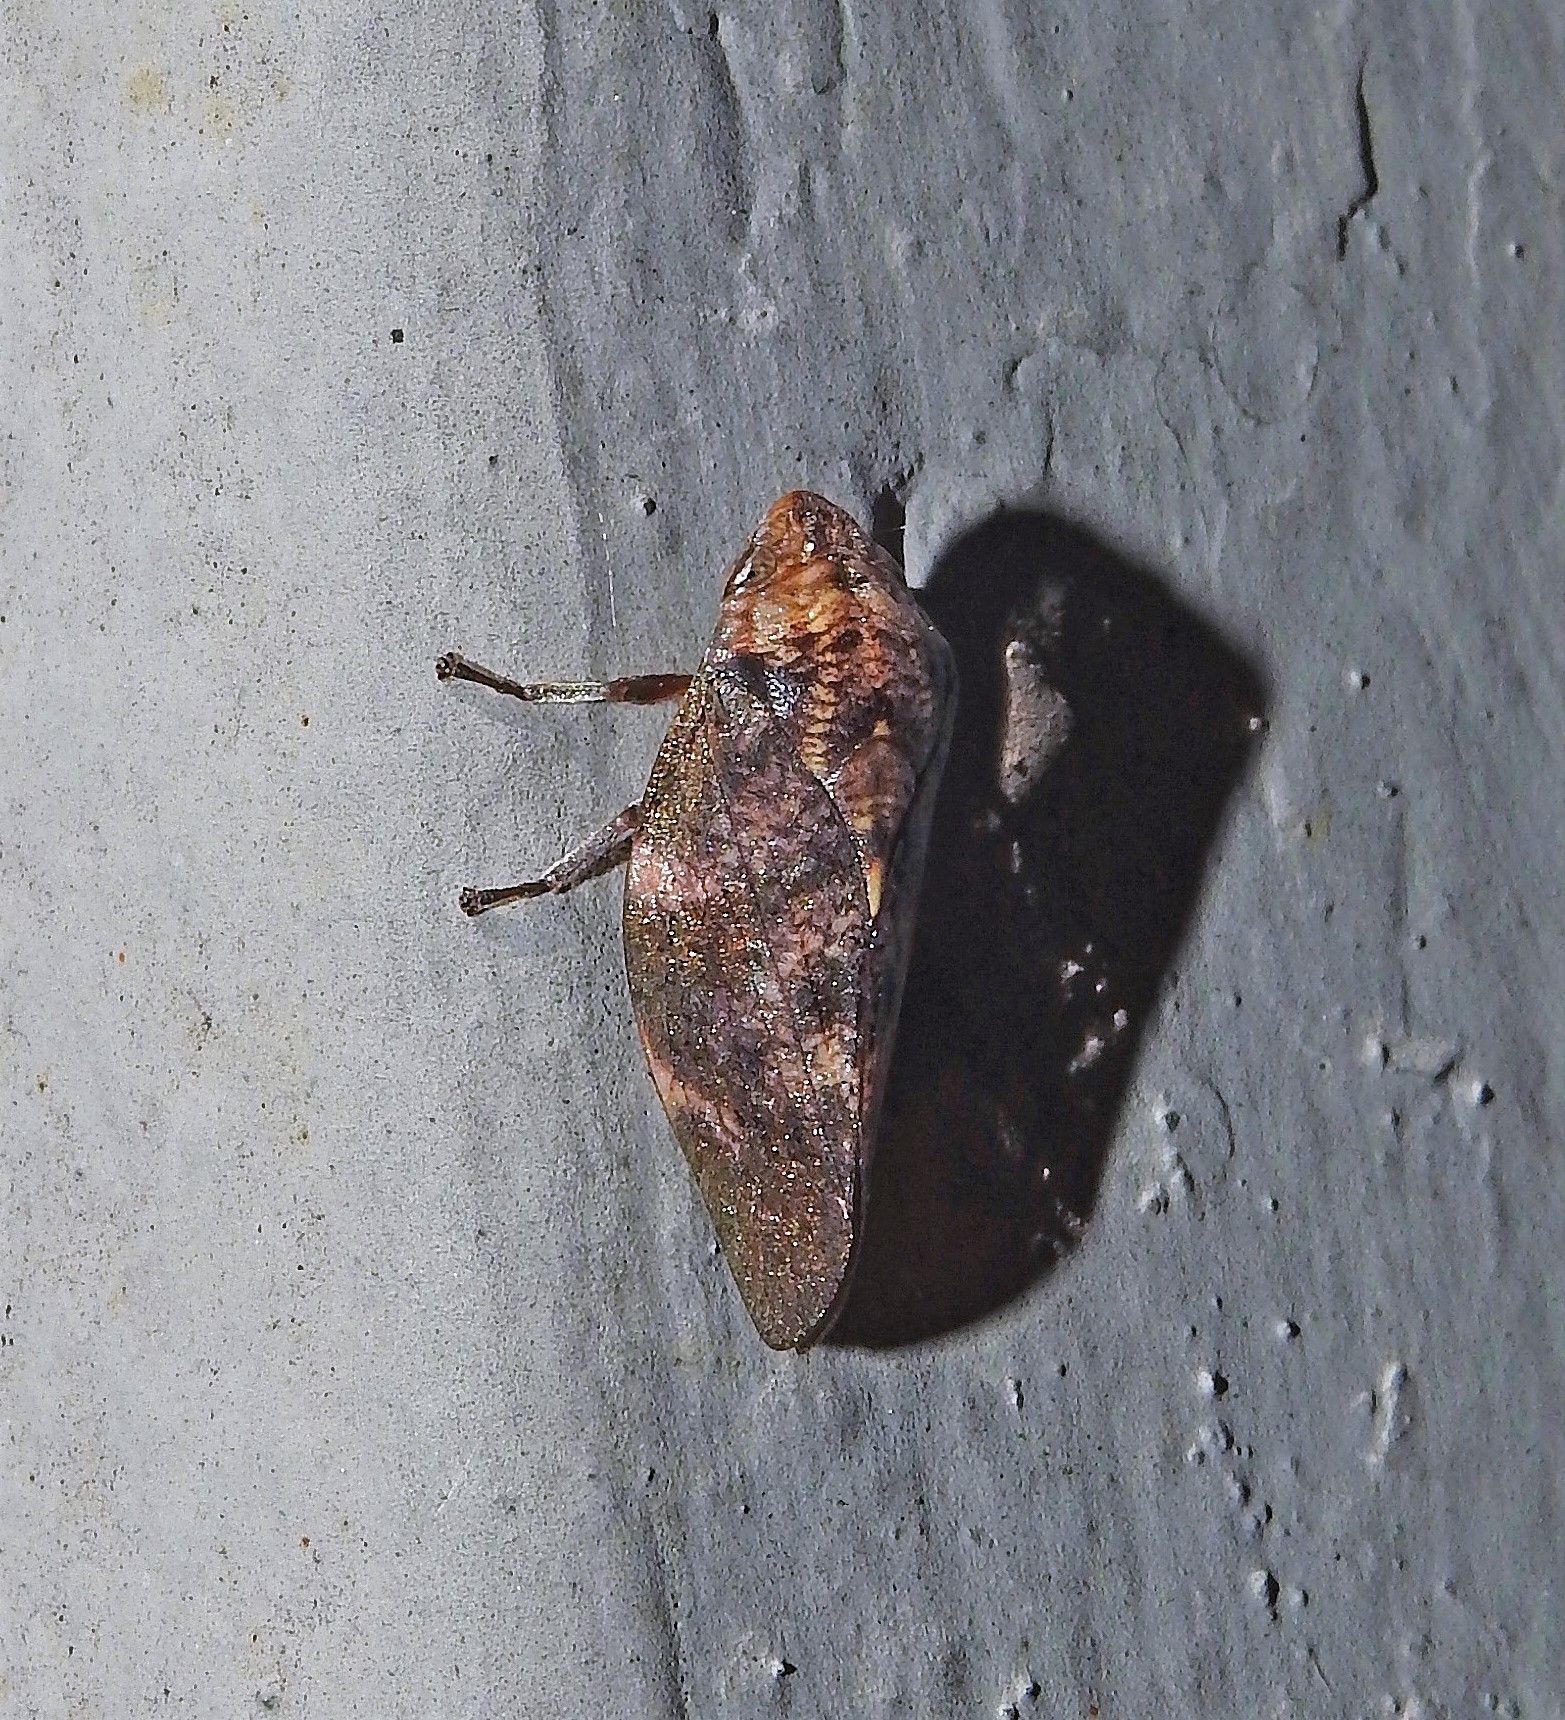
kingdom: Animalia
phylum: Arthropoda
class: Insecta
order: Hemiptera
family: Aphrophoridae
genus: Cephisus
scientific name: Cephisus siccifolius
